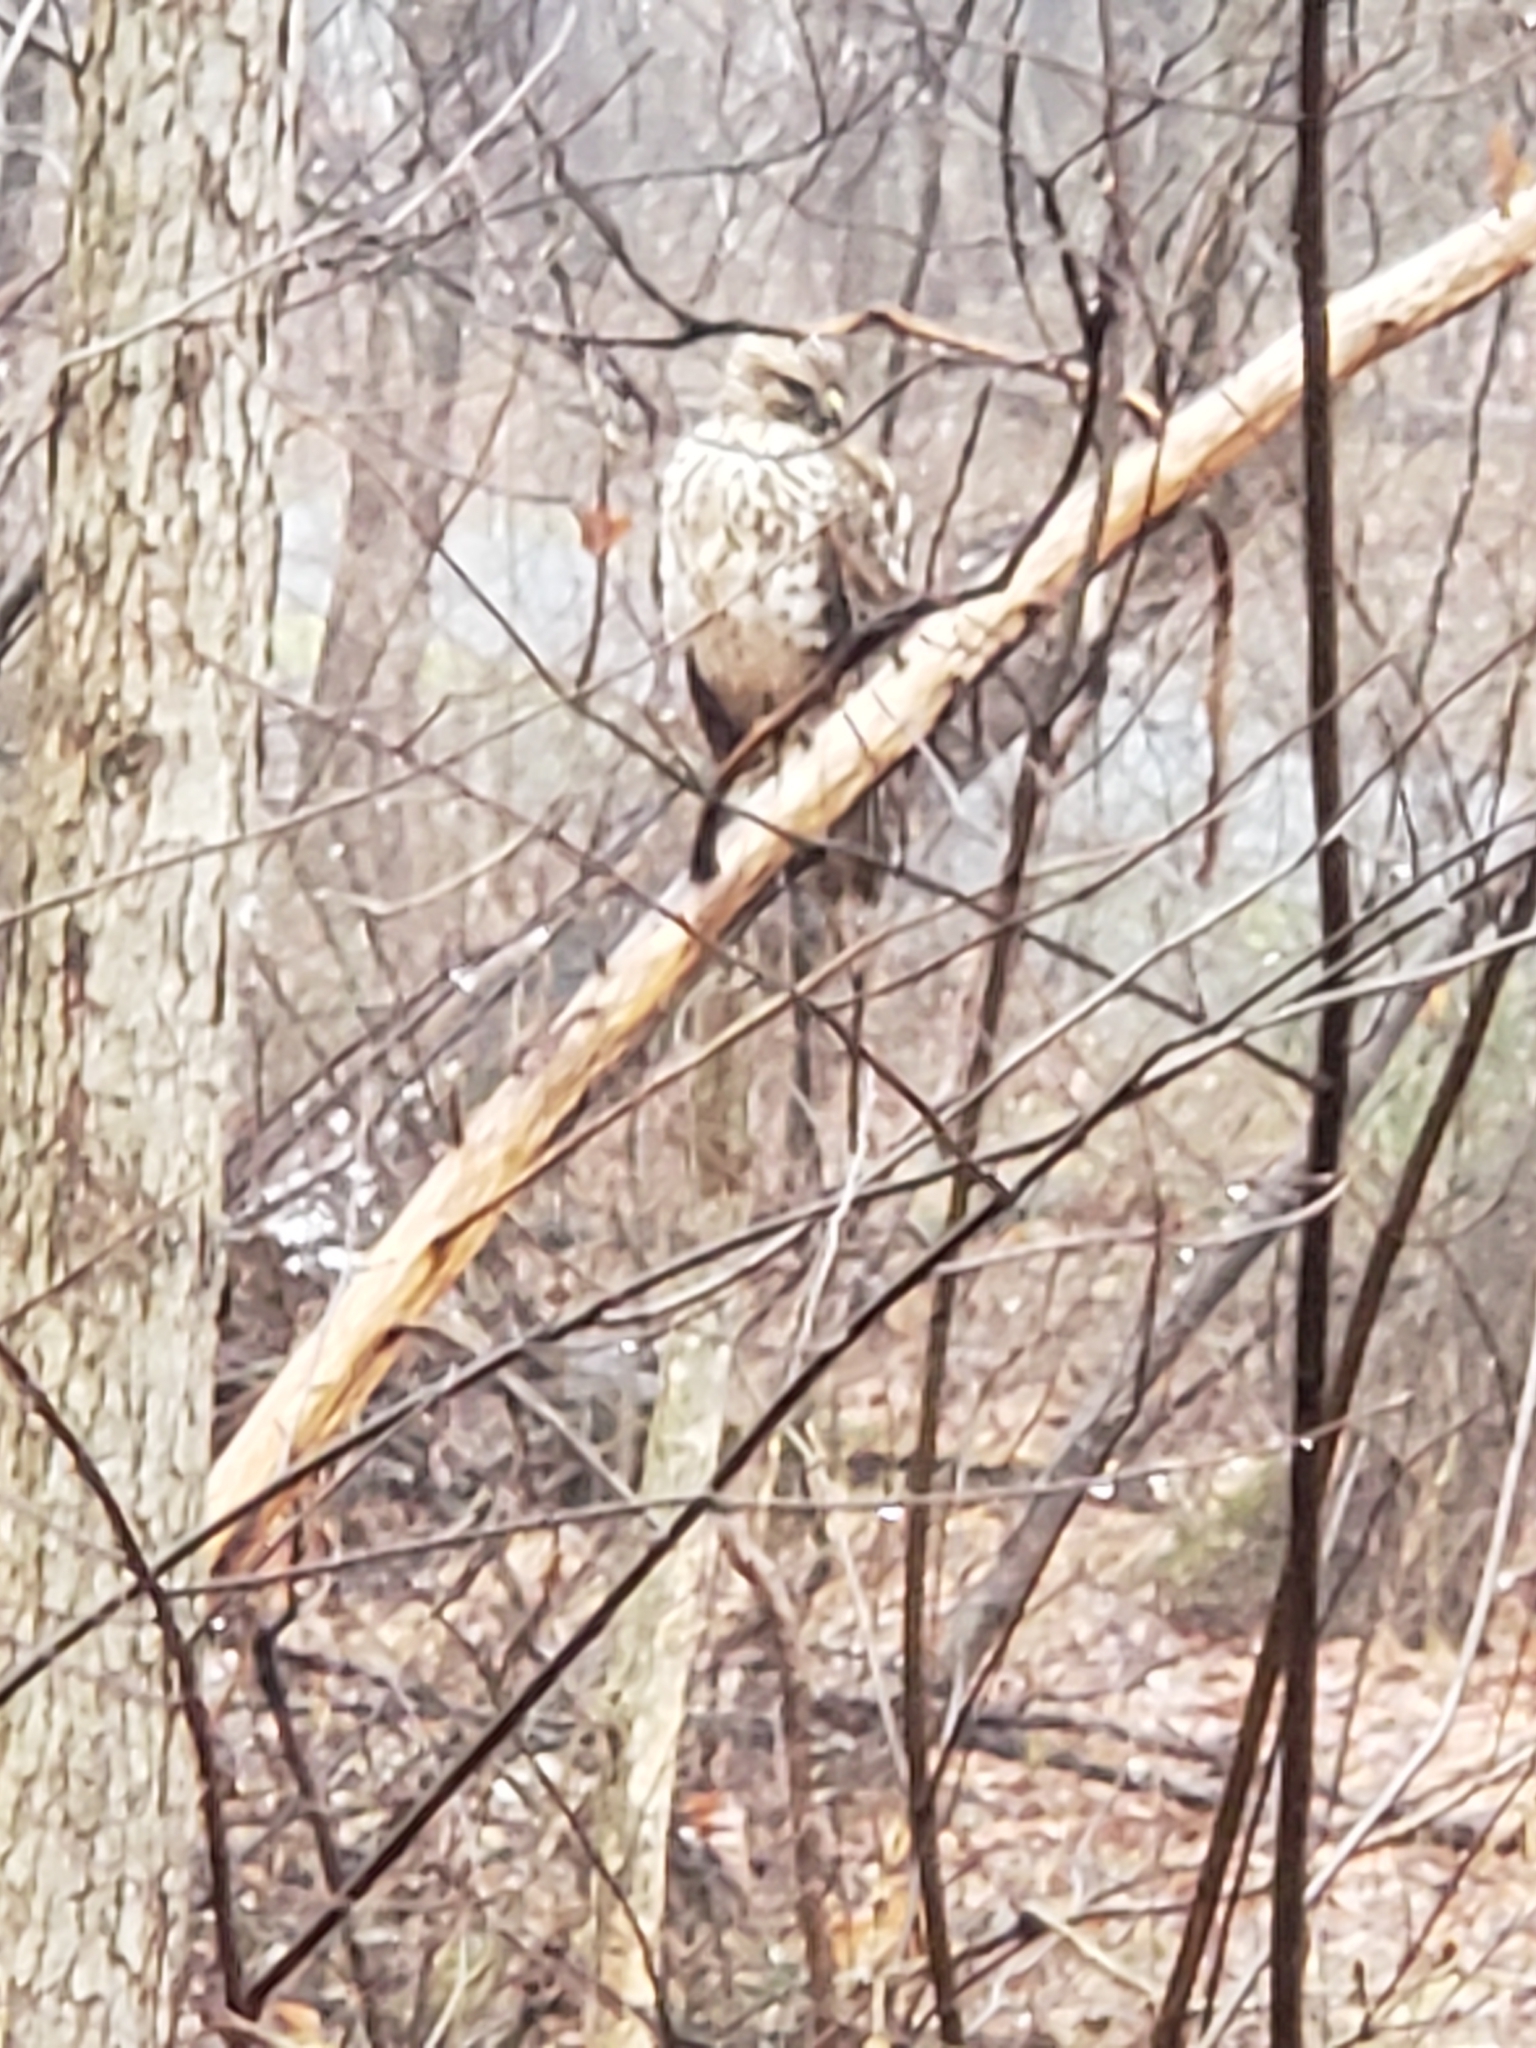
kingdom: Animalia
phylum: Chordata
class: Aves
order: Accipitriformes
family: Accipitridae
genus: Buteo
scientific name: Buteo lineatus
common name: Red-shouldered hawk
